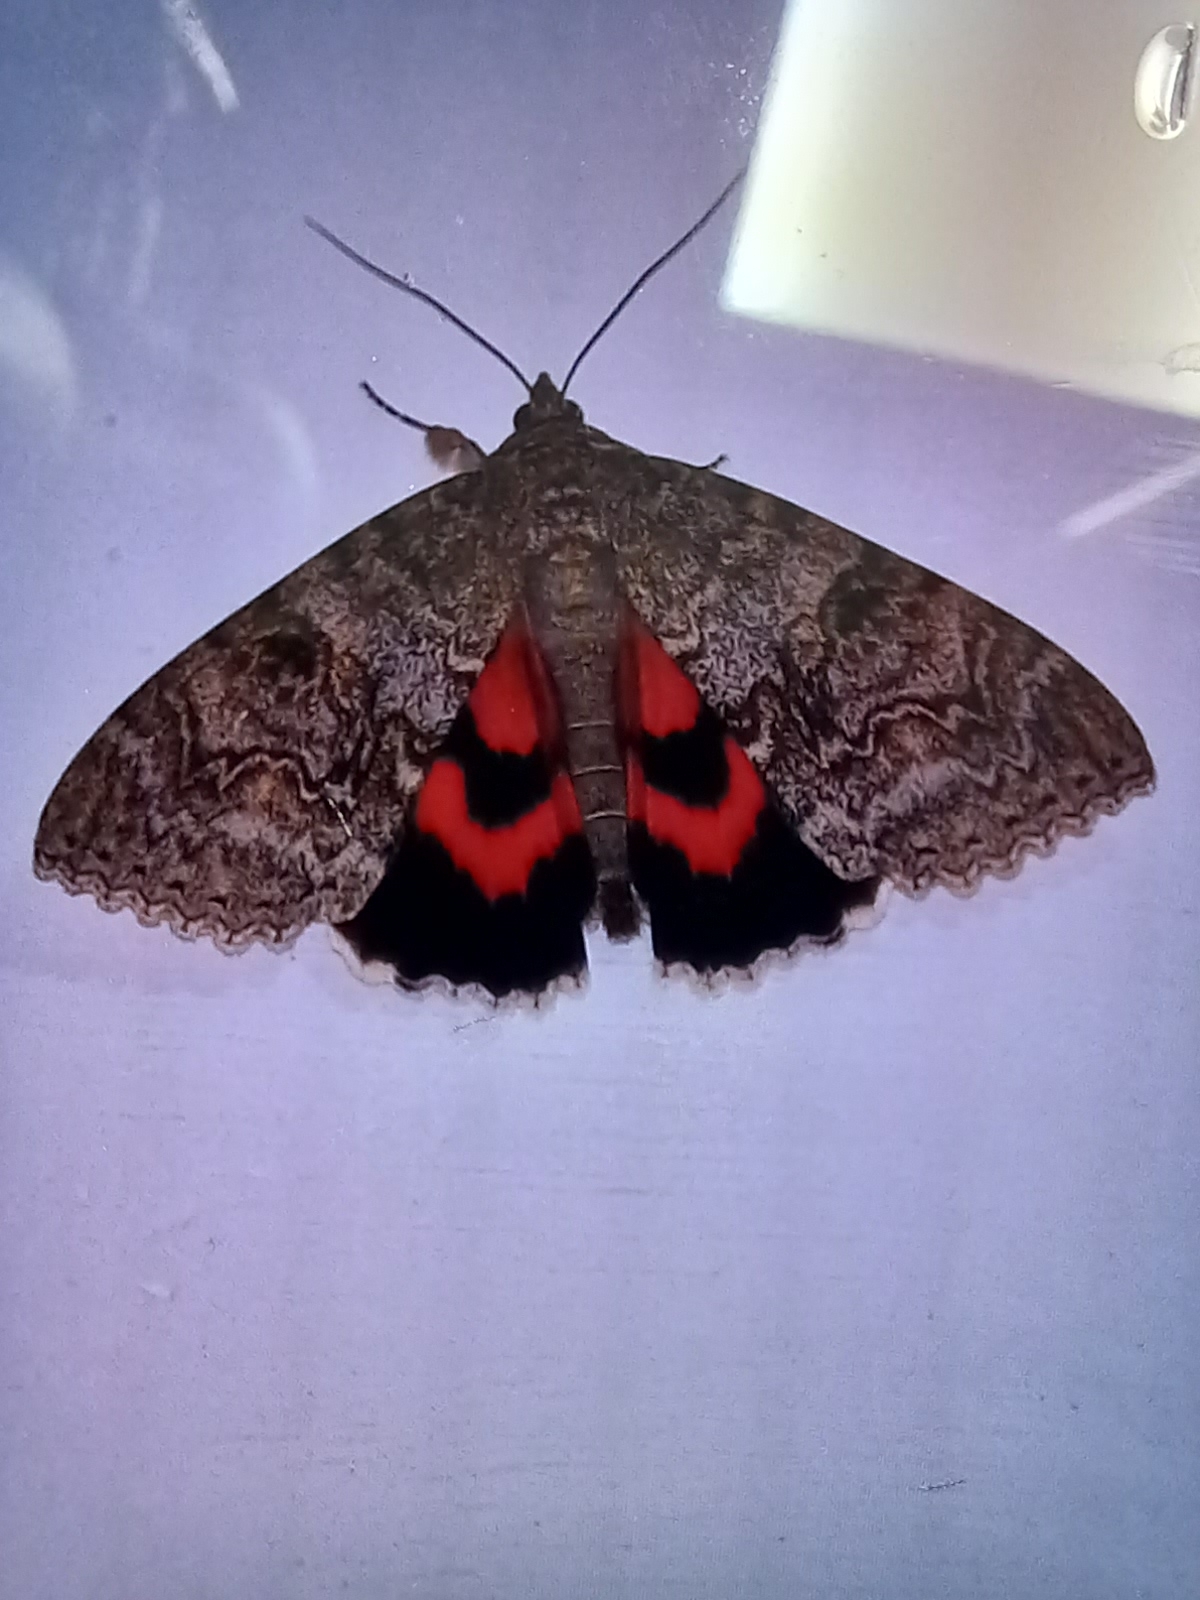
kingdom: Animalia
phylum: Arthropoda
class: Insecta
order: Lepidoptera
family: Erebidae
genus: Catocala
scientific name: Catocala nupta
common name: Red underwing
